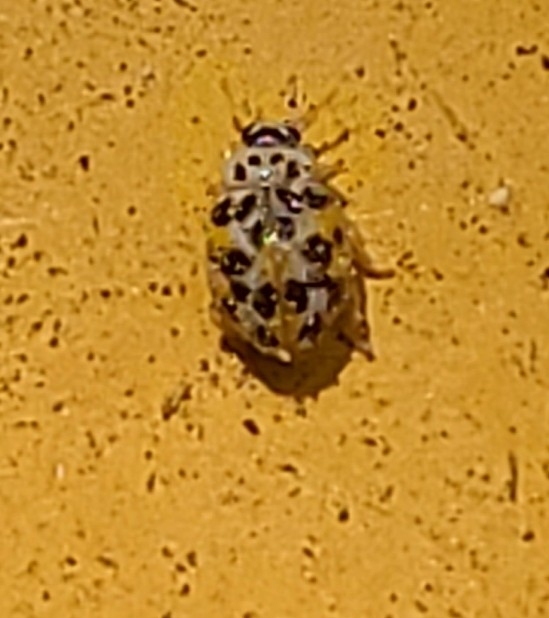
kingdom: Animalia
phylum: Arthropoda
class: Insecta
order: Coleoptera
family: Coccinellidae
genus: Psyllobora
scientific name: Psyllobora vigintimaculata
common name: Ladybird beetle
